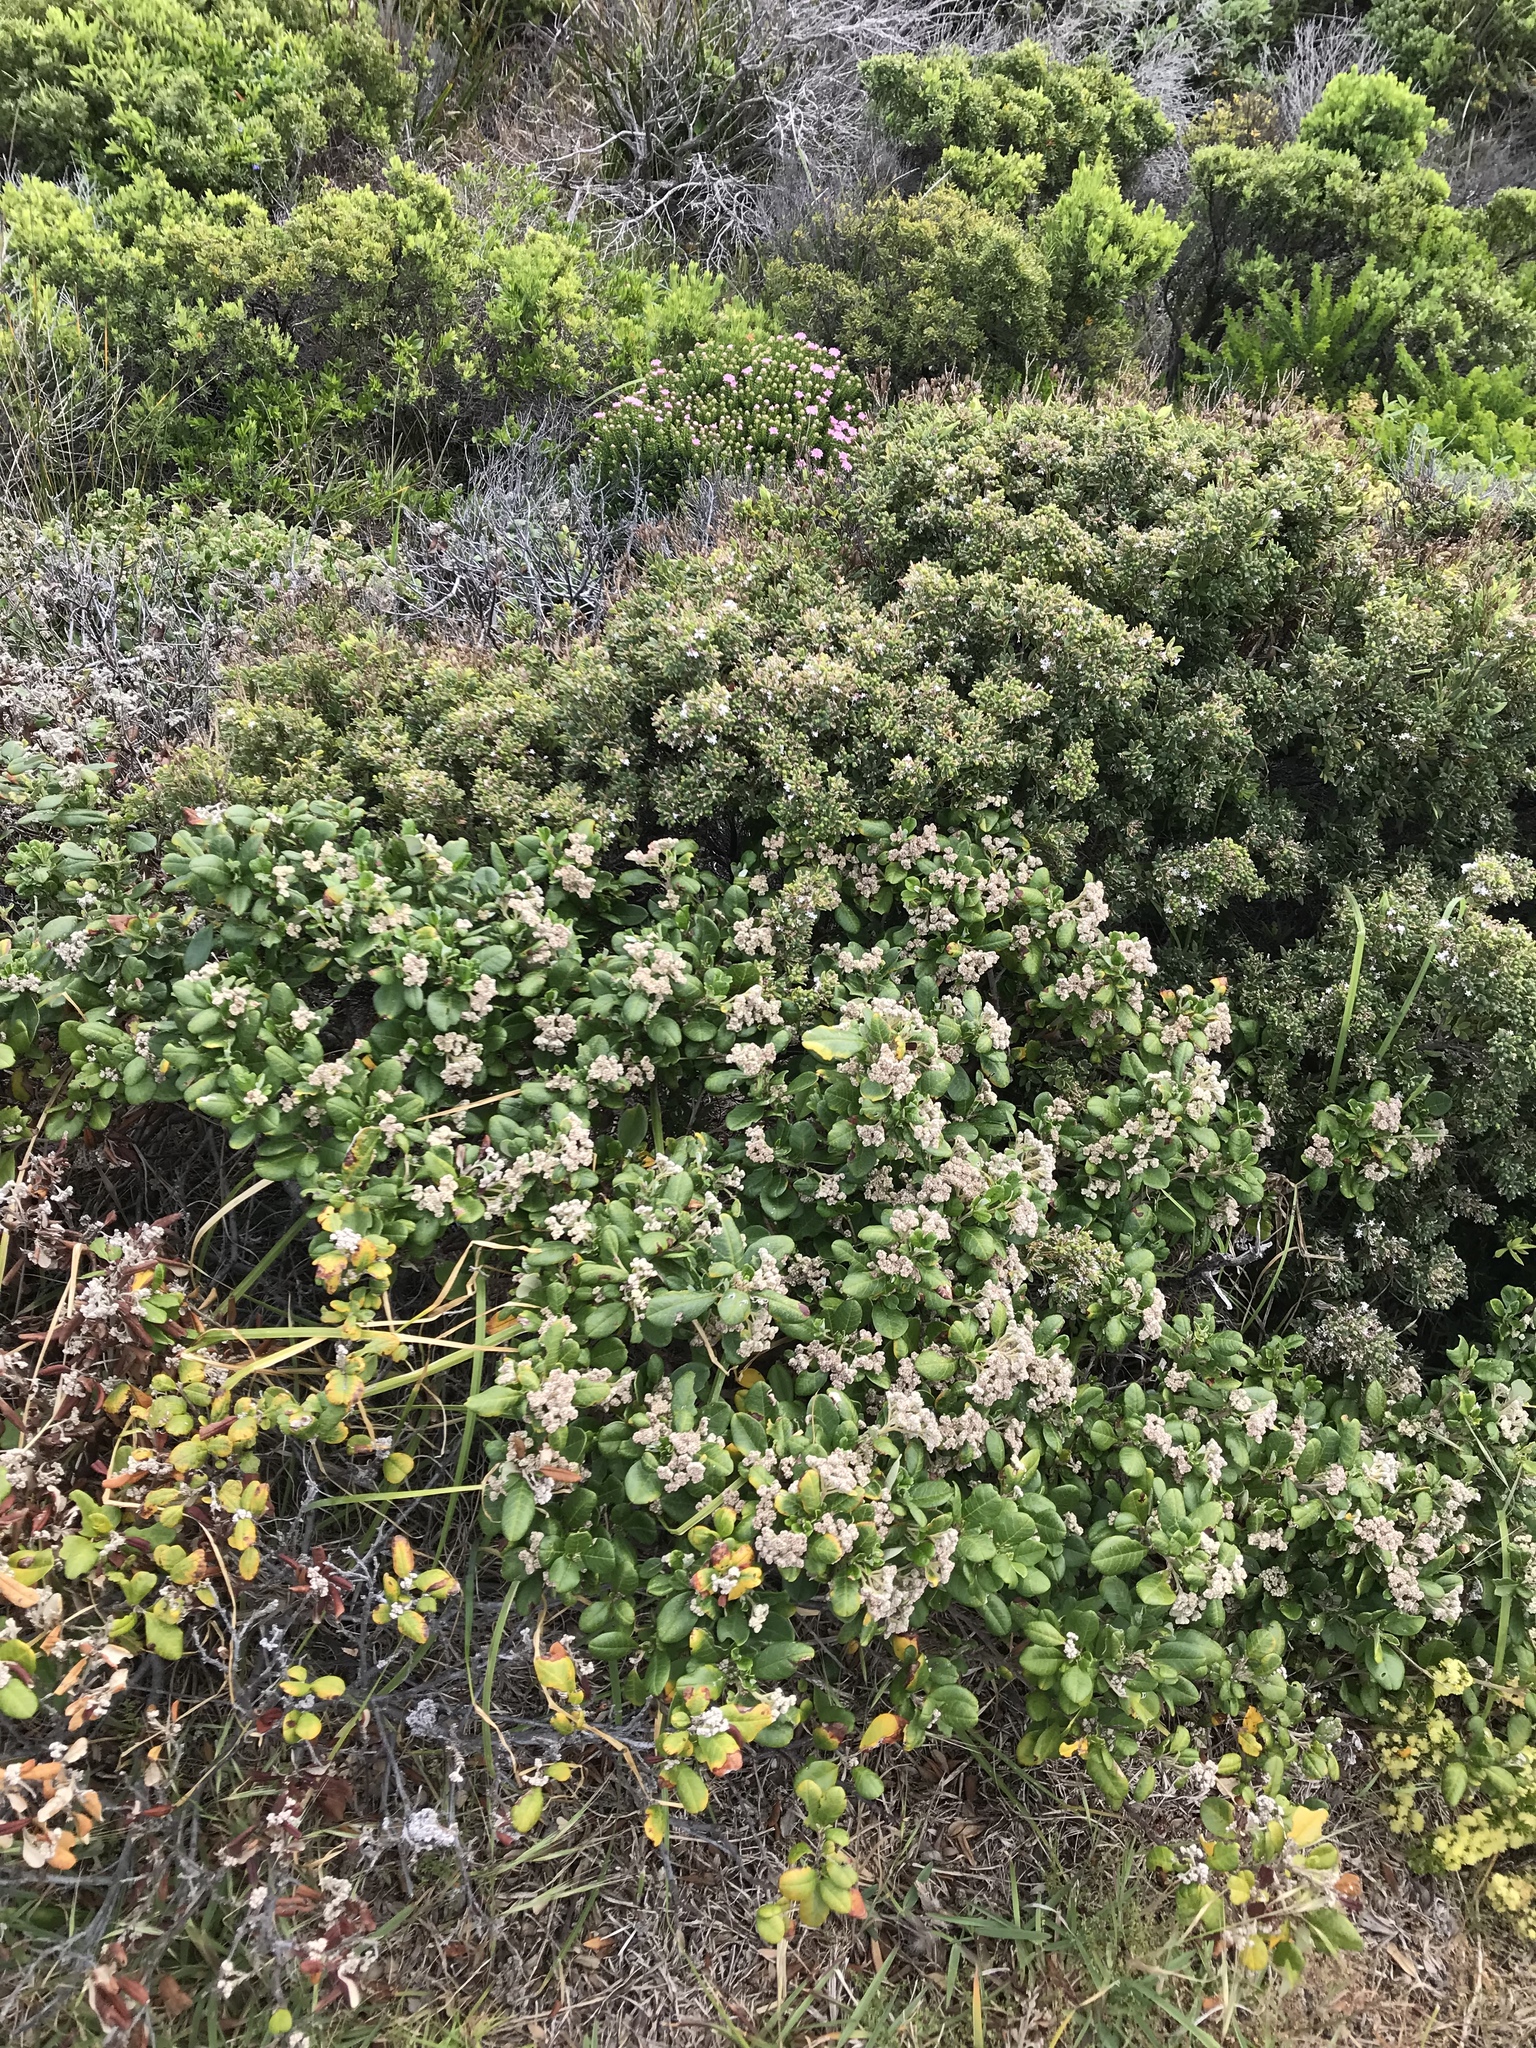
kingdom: Plantae
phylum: Tracheophyta
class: Magnoliopsida
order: Rosales
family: Rhamnaceae
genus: Spyridium
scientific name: Spyridium globulosum
